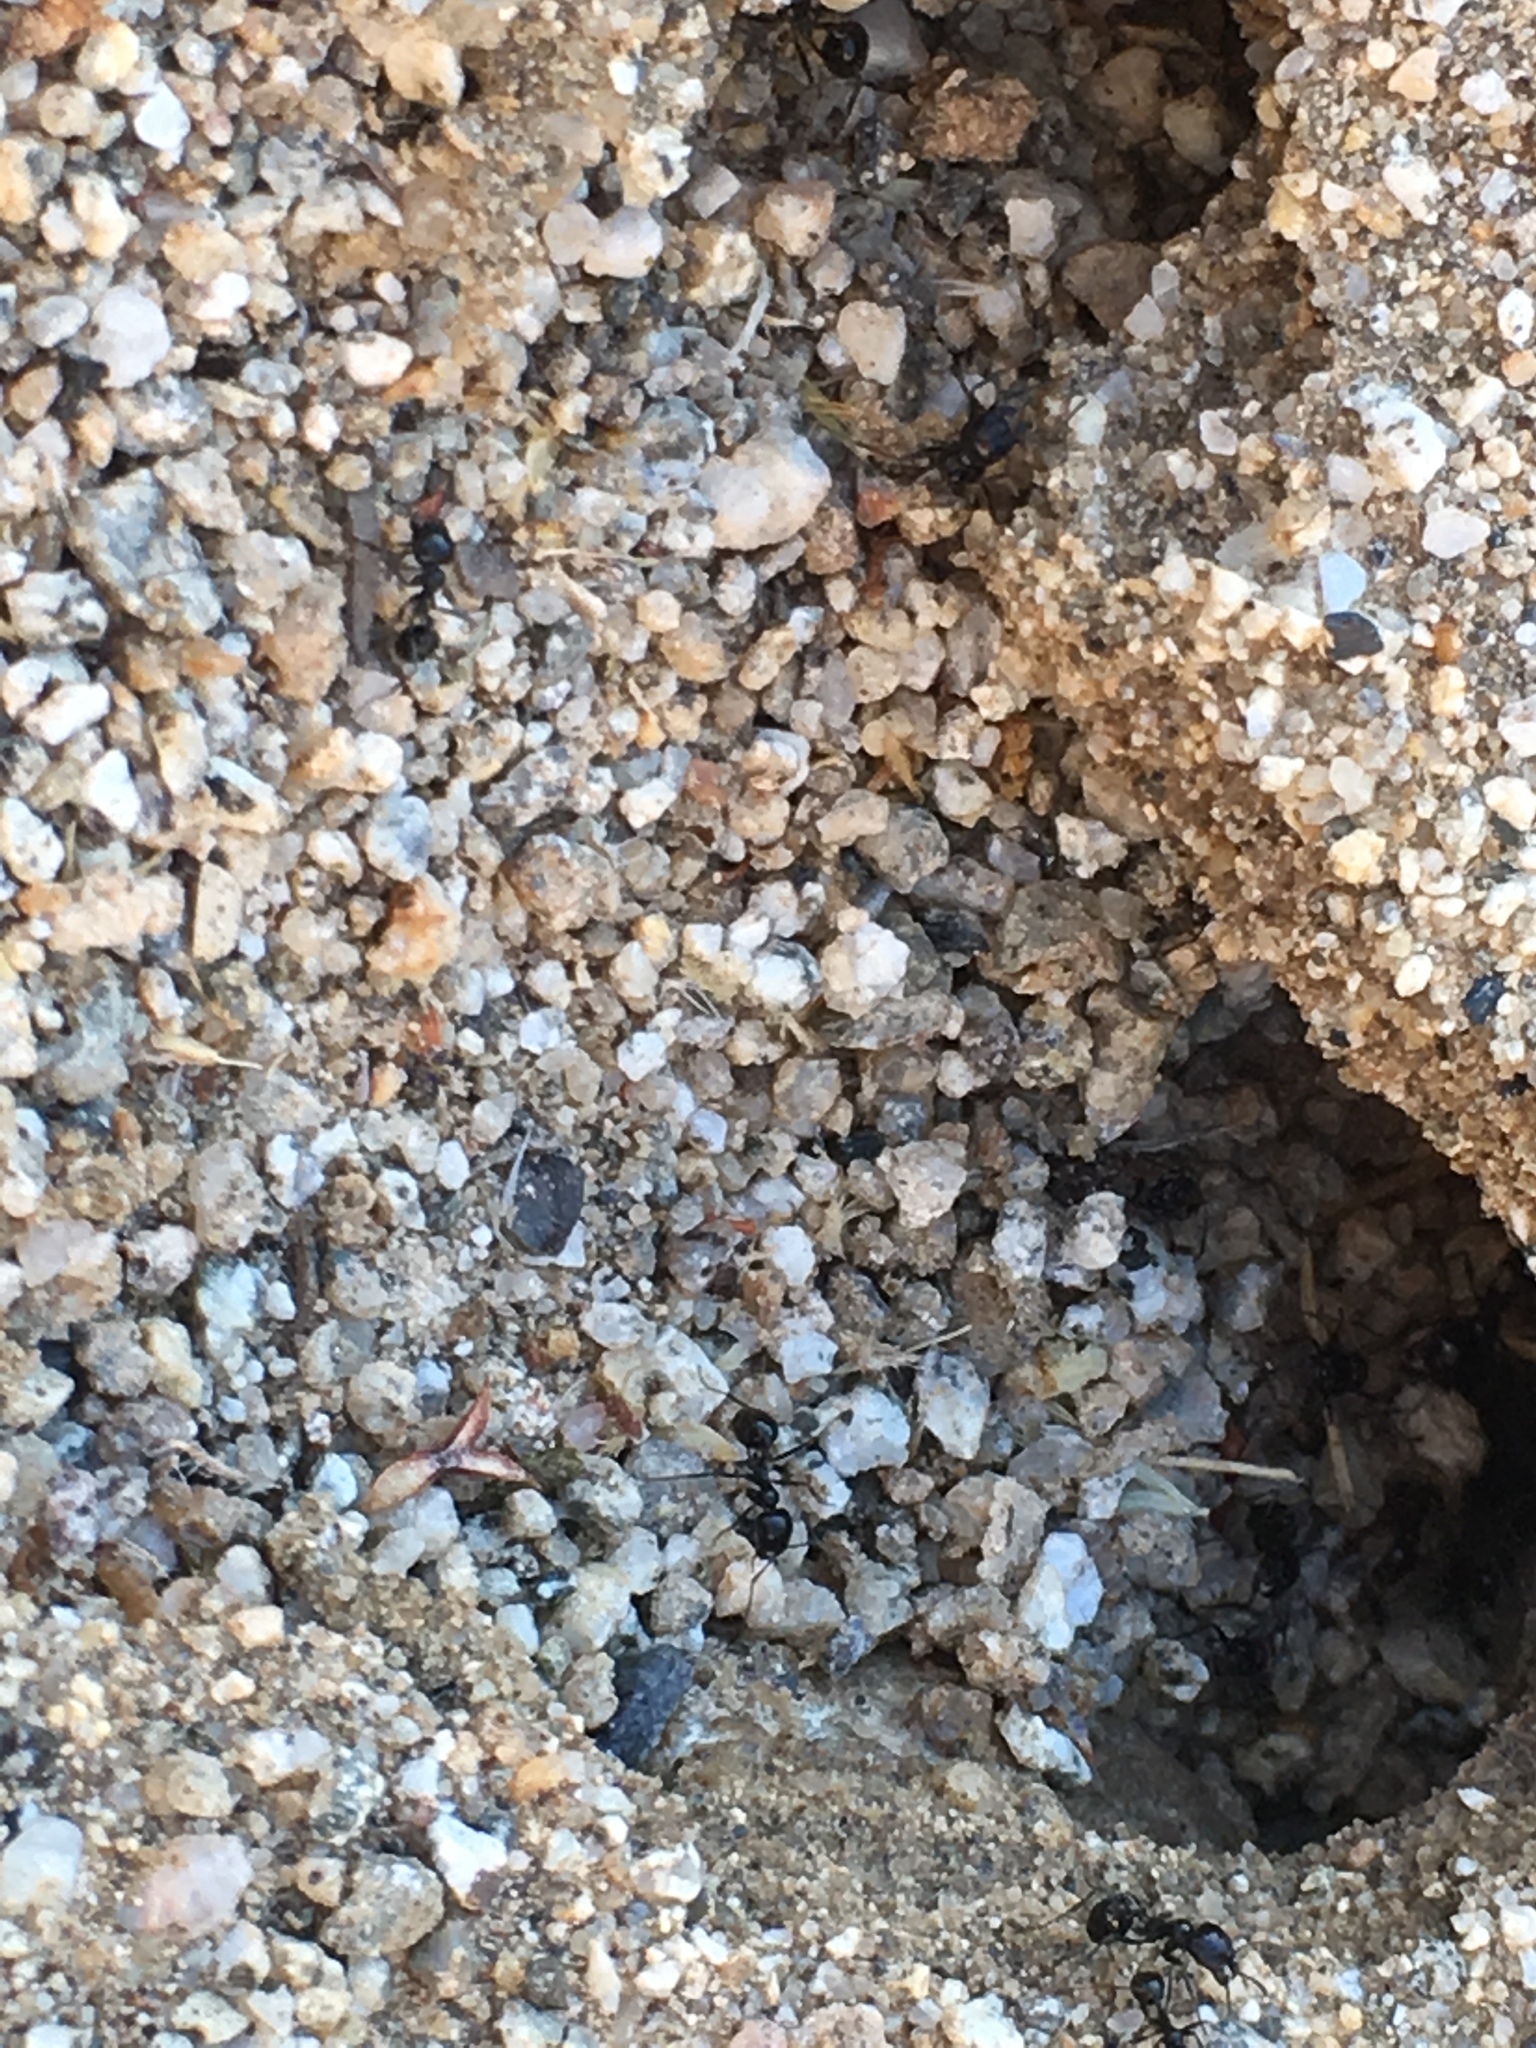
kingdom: Animalia
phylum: Arthropoda
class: Insecta
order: Hymenoptera
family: Formicidae
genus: Messor
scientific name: Messor pergandei
